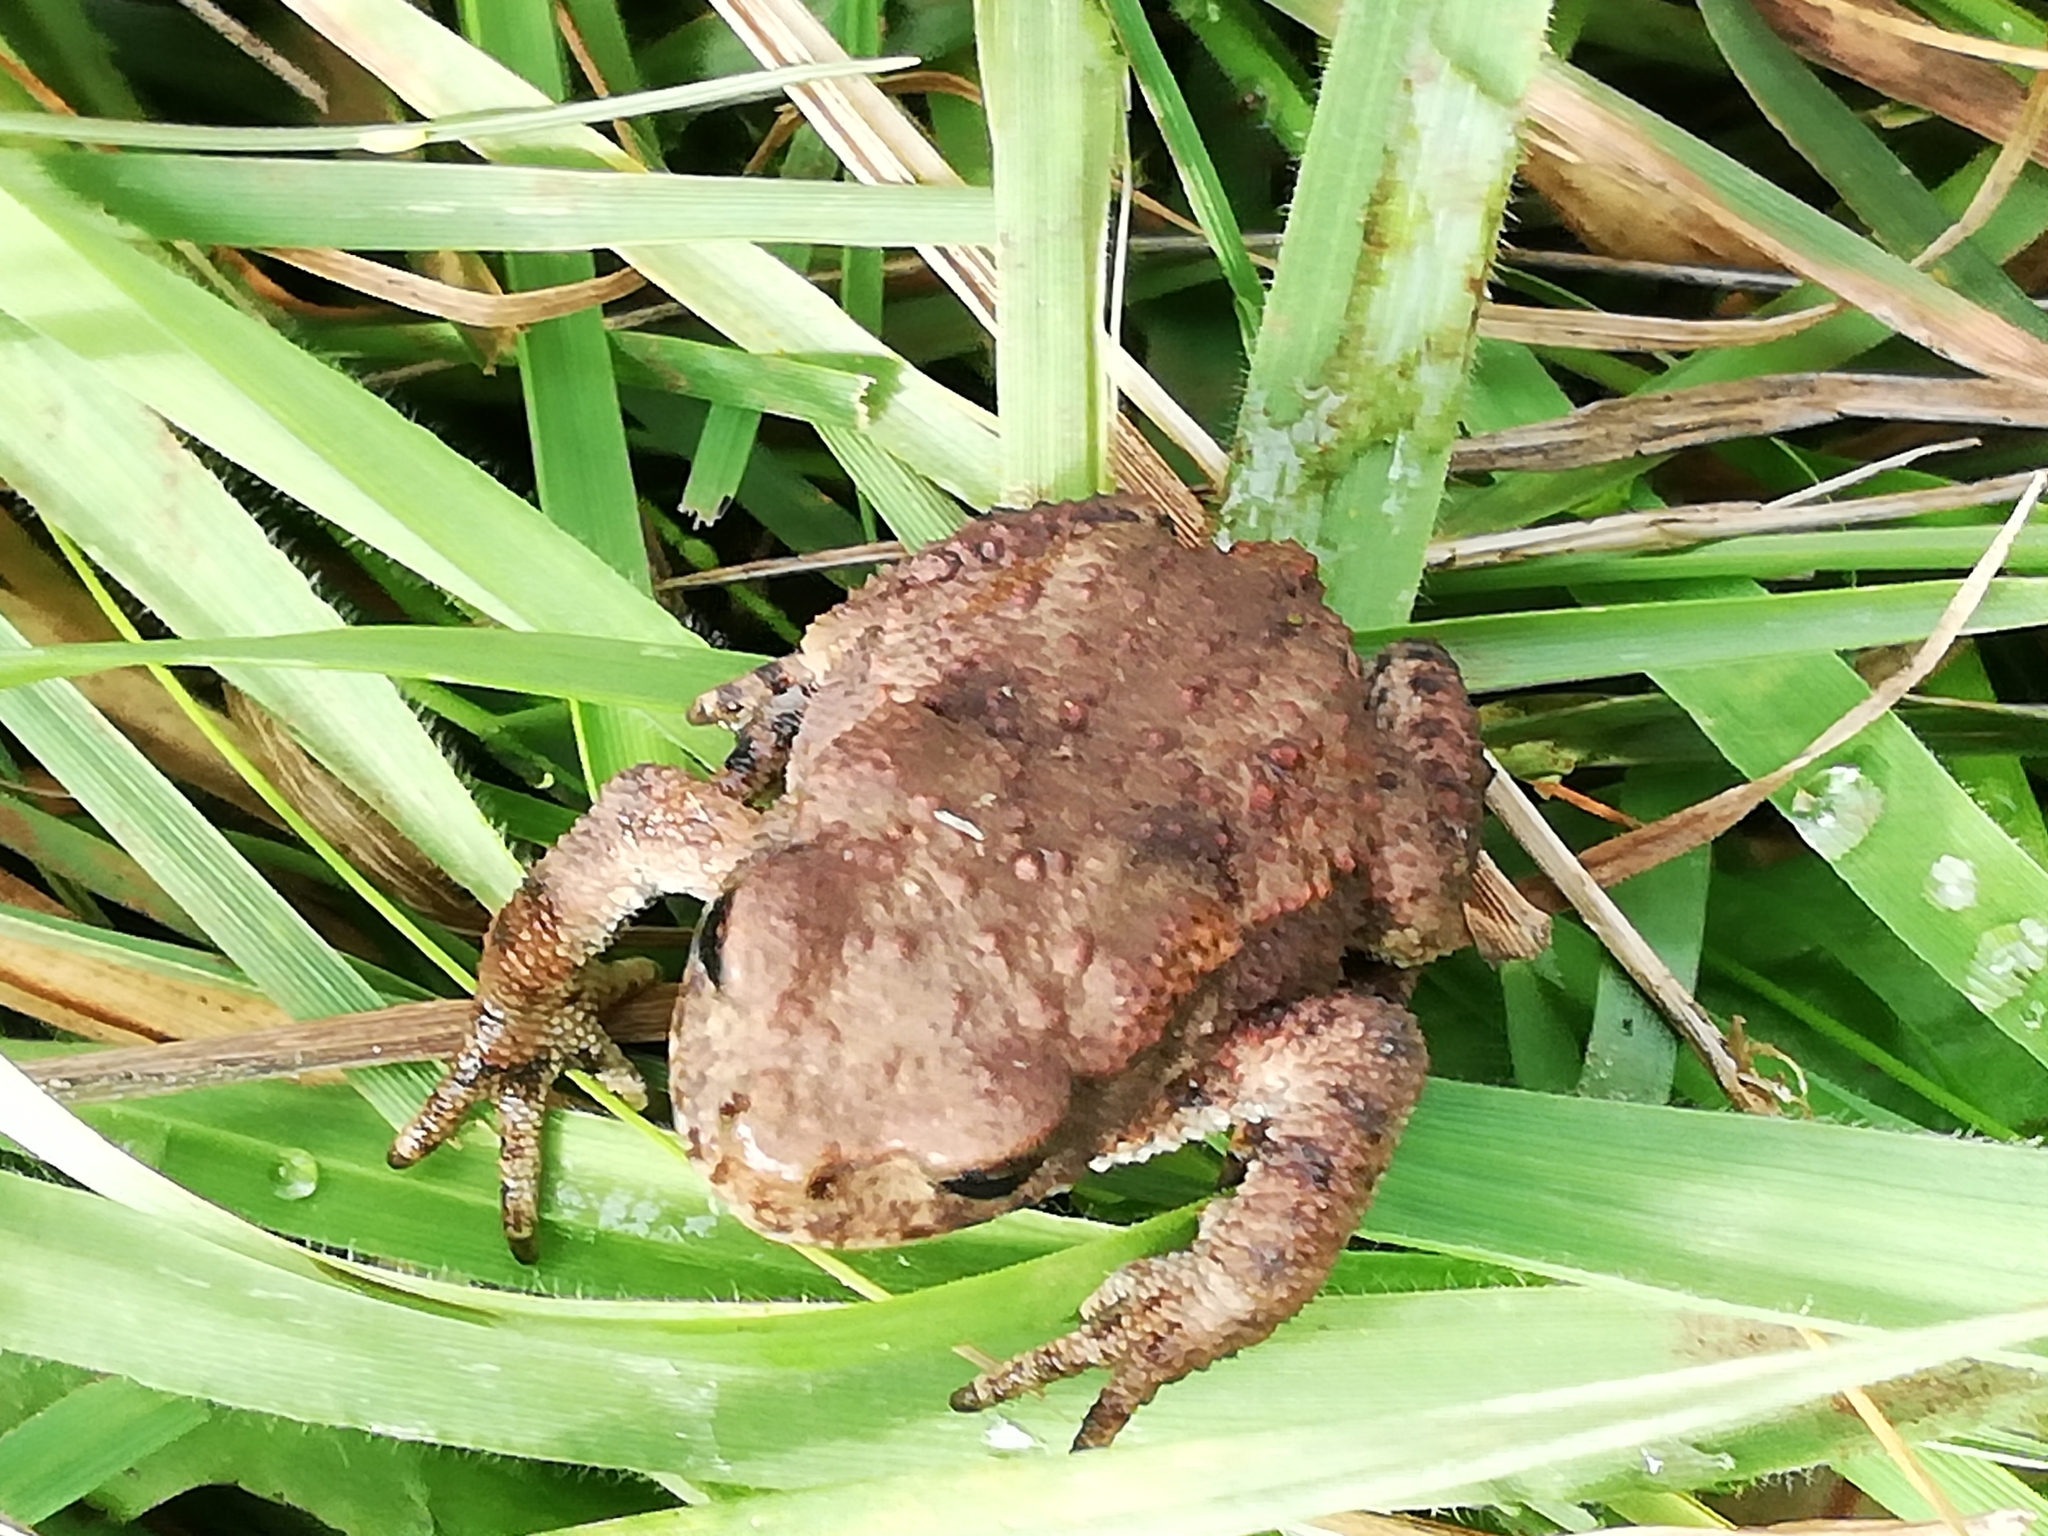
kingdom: Animalia
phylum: Chordata
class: Amphibia
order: Anura
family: Bufonidae
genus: Bufo
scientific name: Bufo bufo
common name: Common toad
